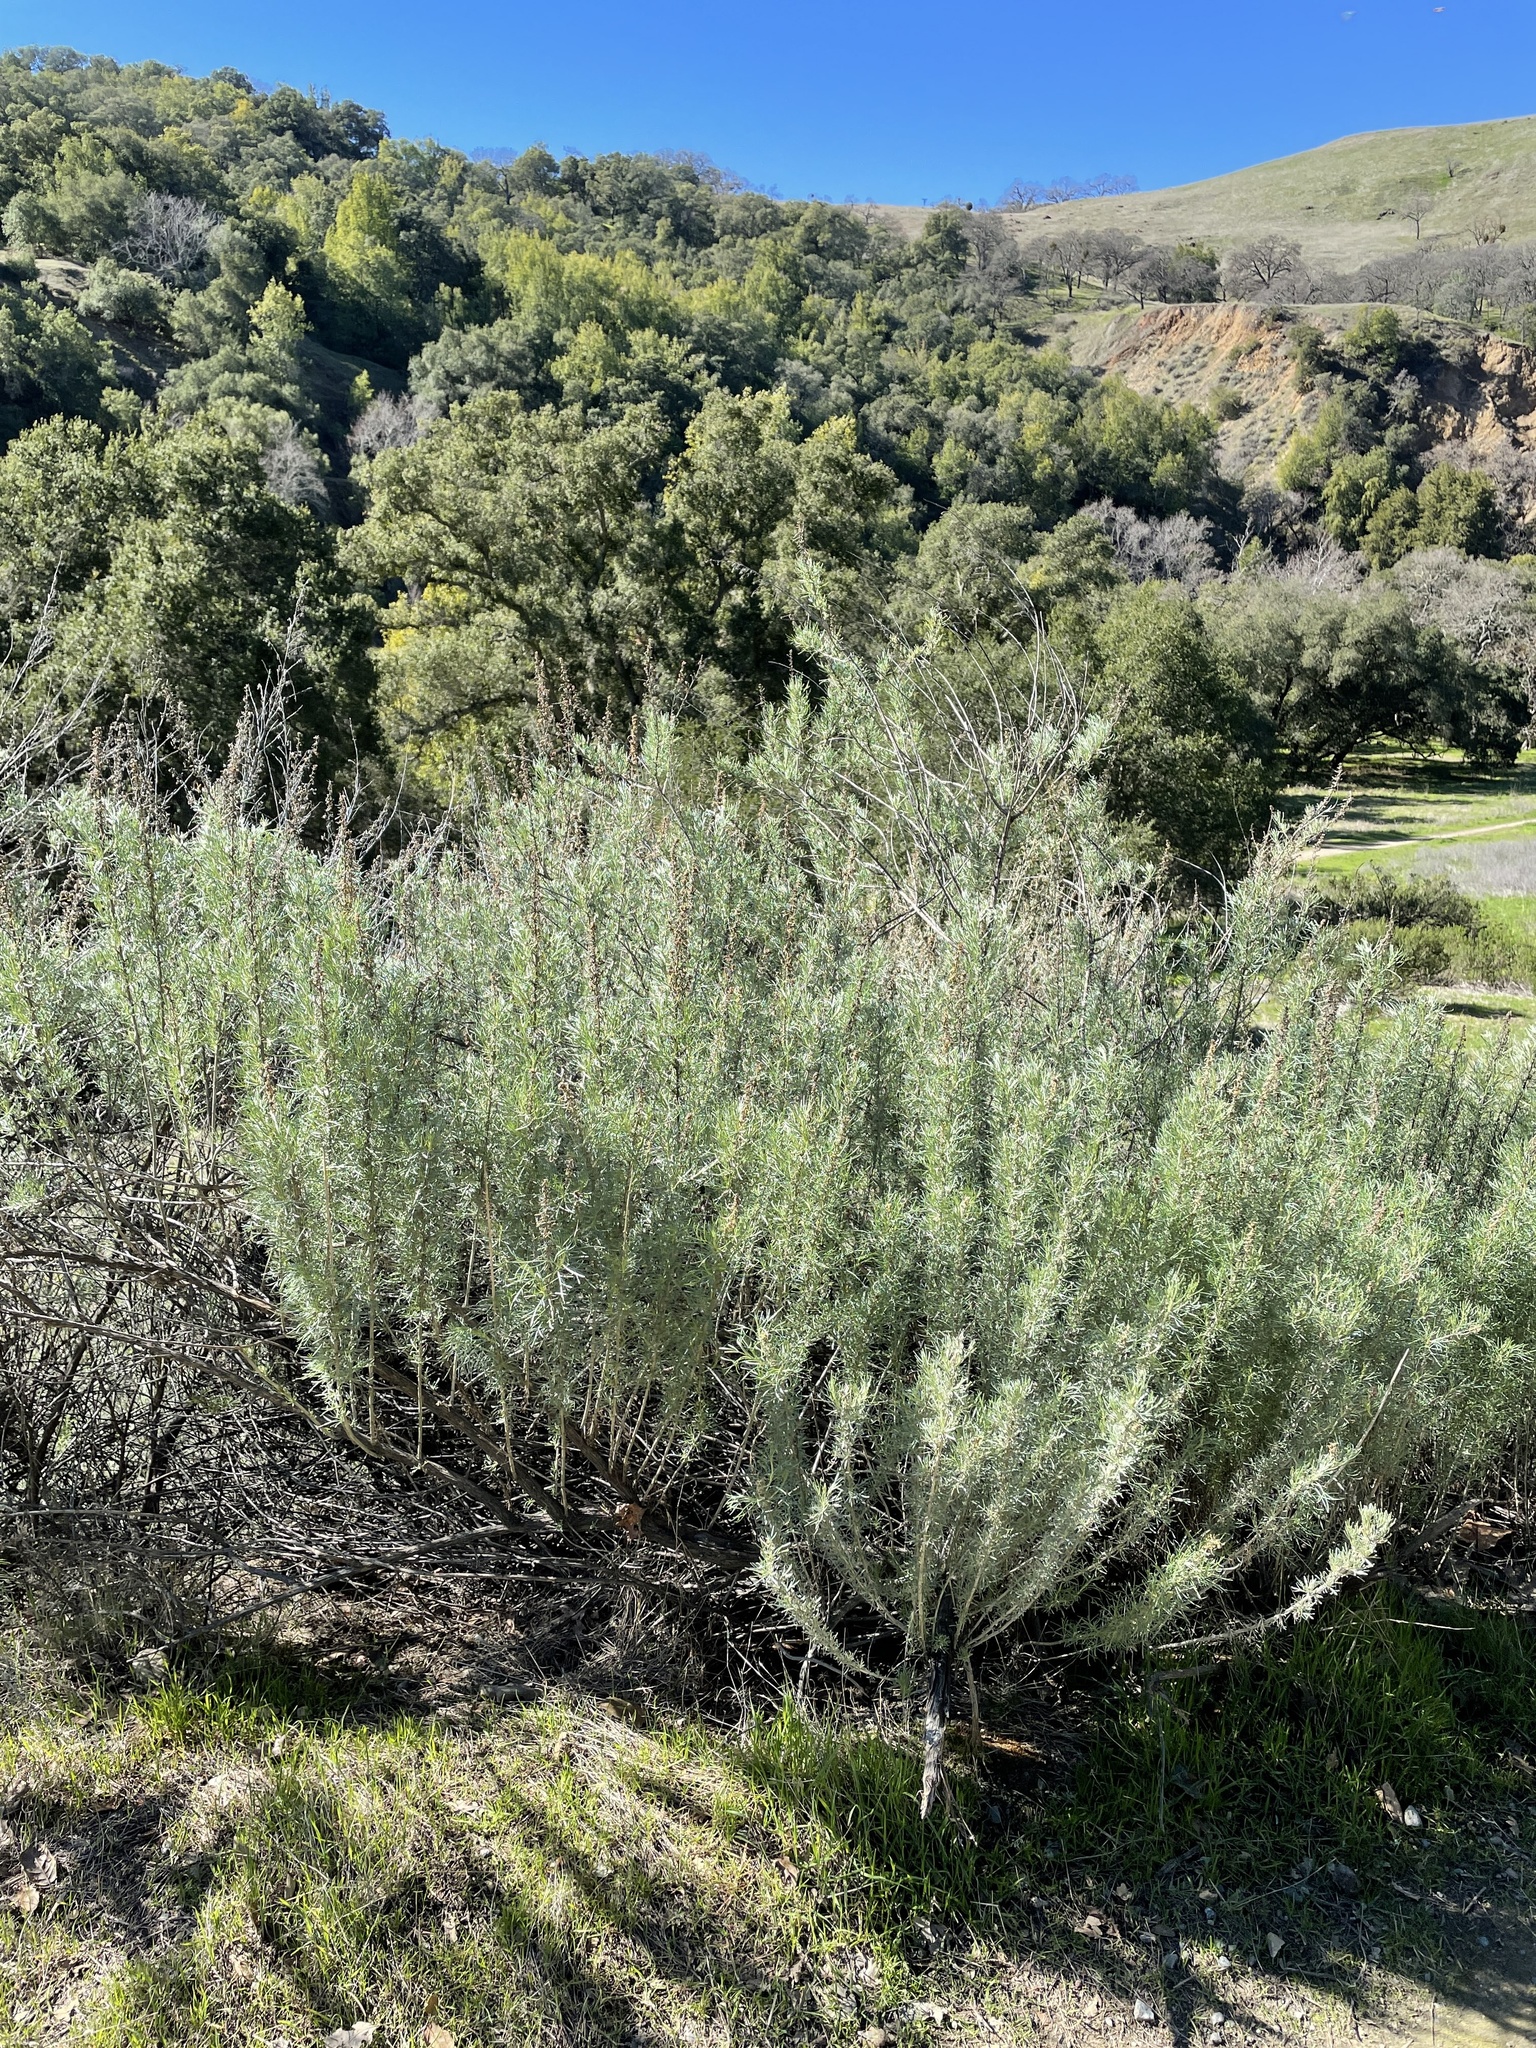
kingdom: Plantae
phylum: Tracheophyta
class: Magnoliopsida
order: Asterales
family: Asteraceae
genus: Artemisia
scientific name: Artemisia californica
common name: California sagebrush
